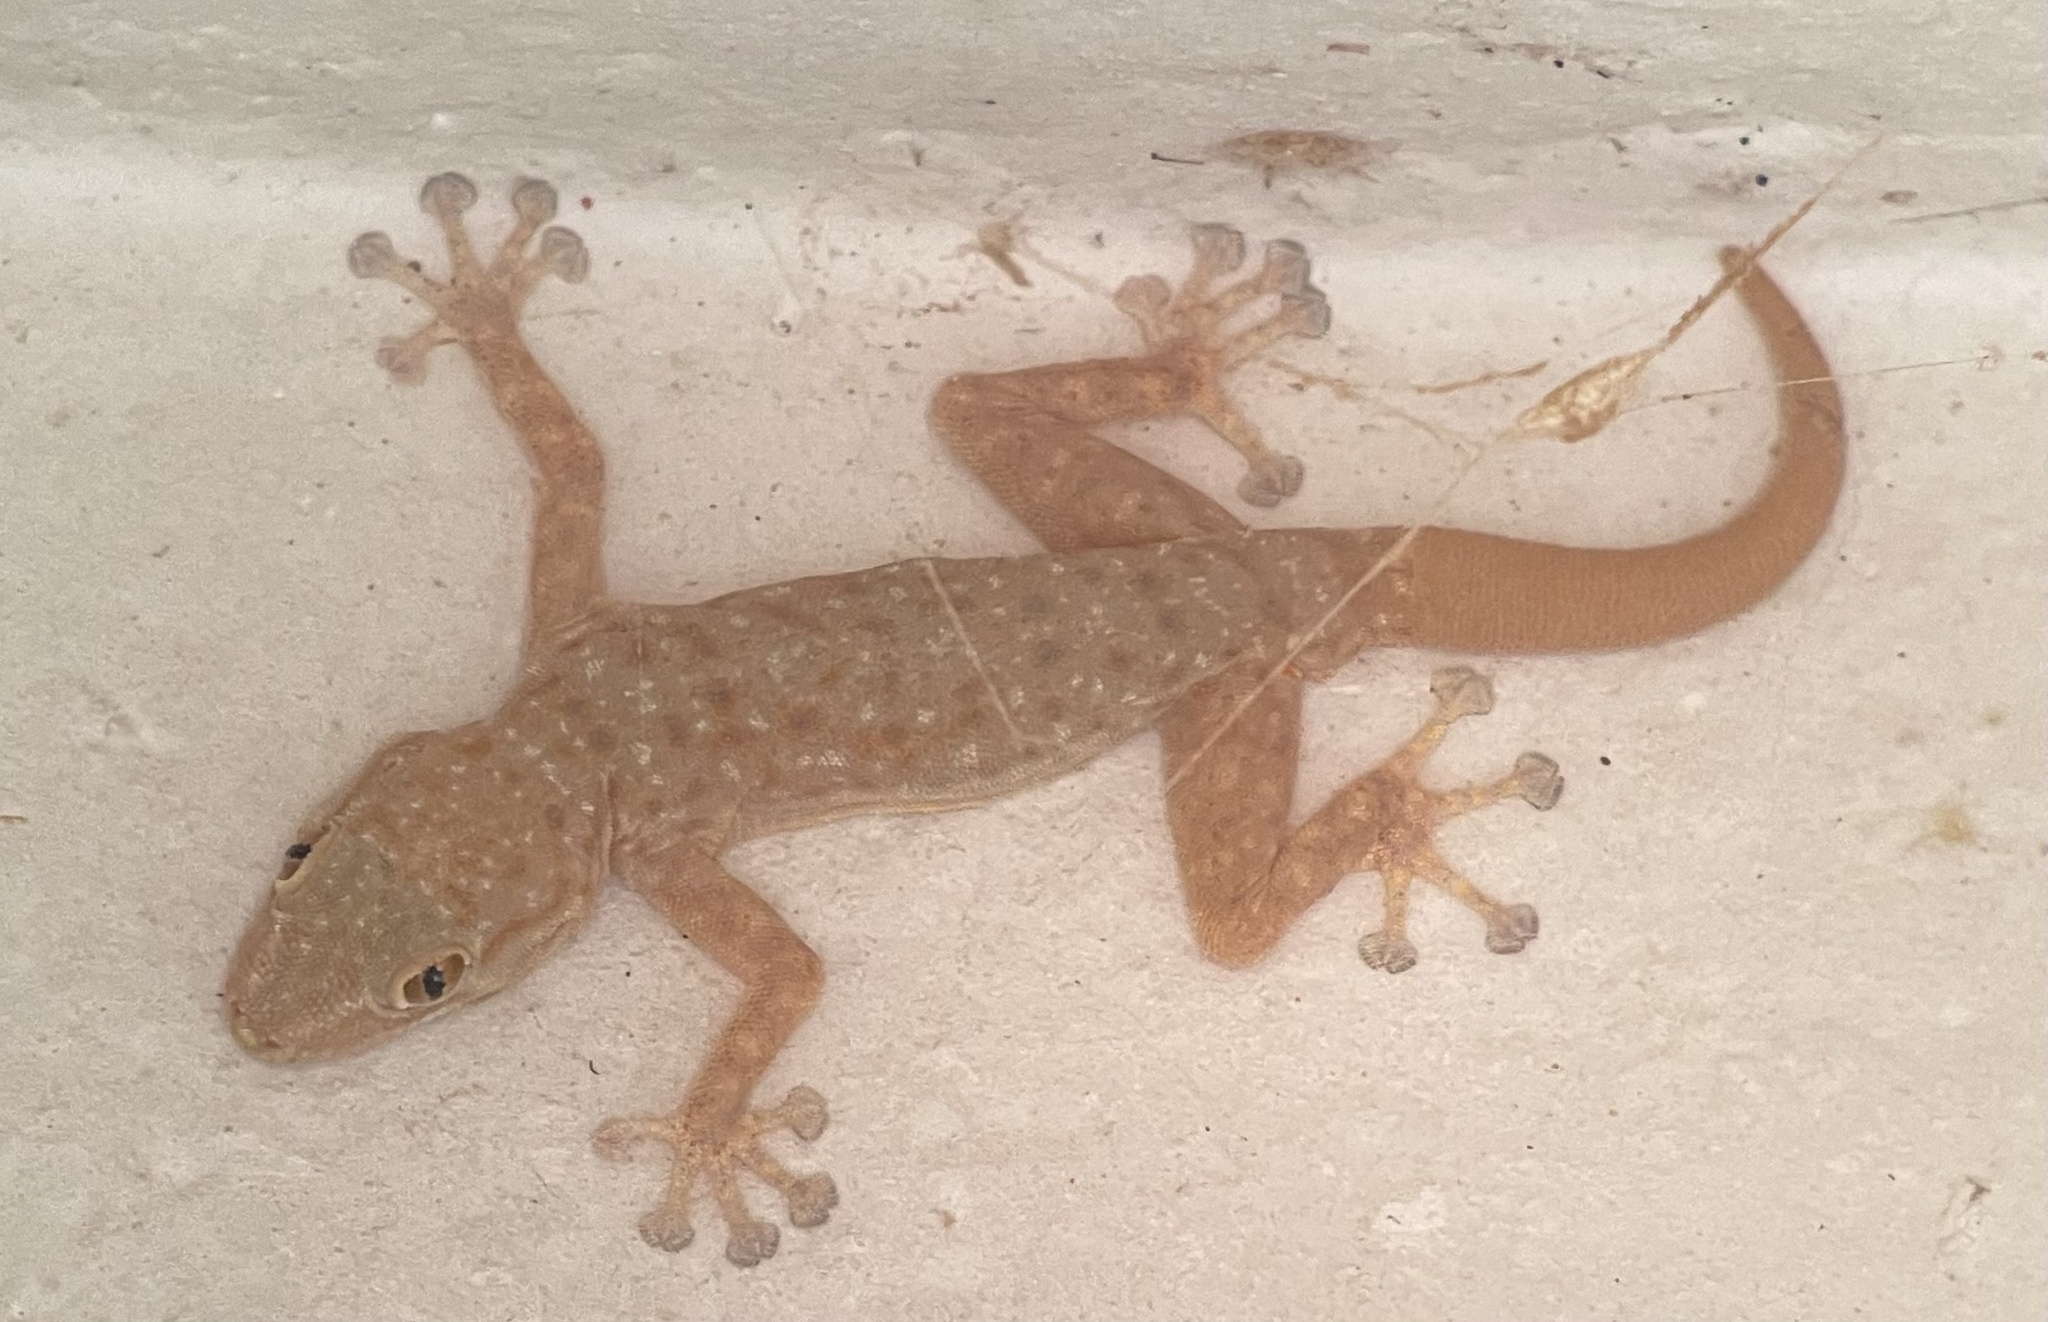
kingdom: Animalia
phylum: Chordata
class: Squamata
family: Phyllodactylidae
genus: Ptyodactylus
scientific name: Ptyodactylus oudrii
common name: Algerian fan-fingered gecko
